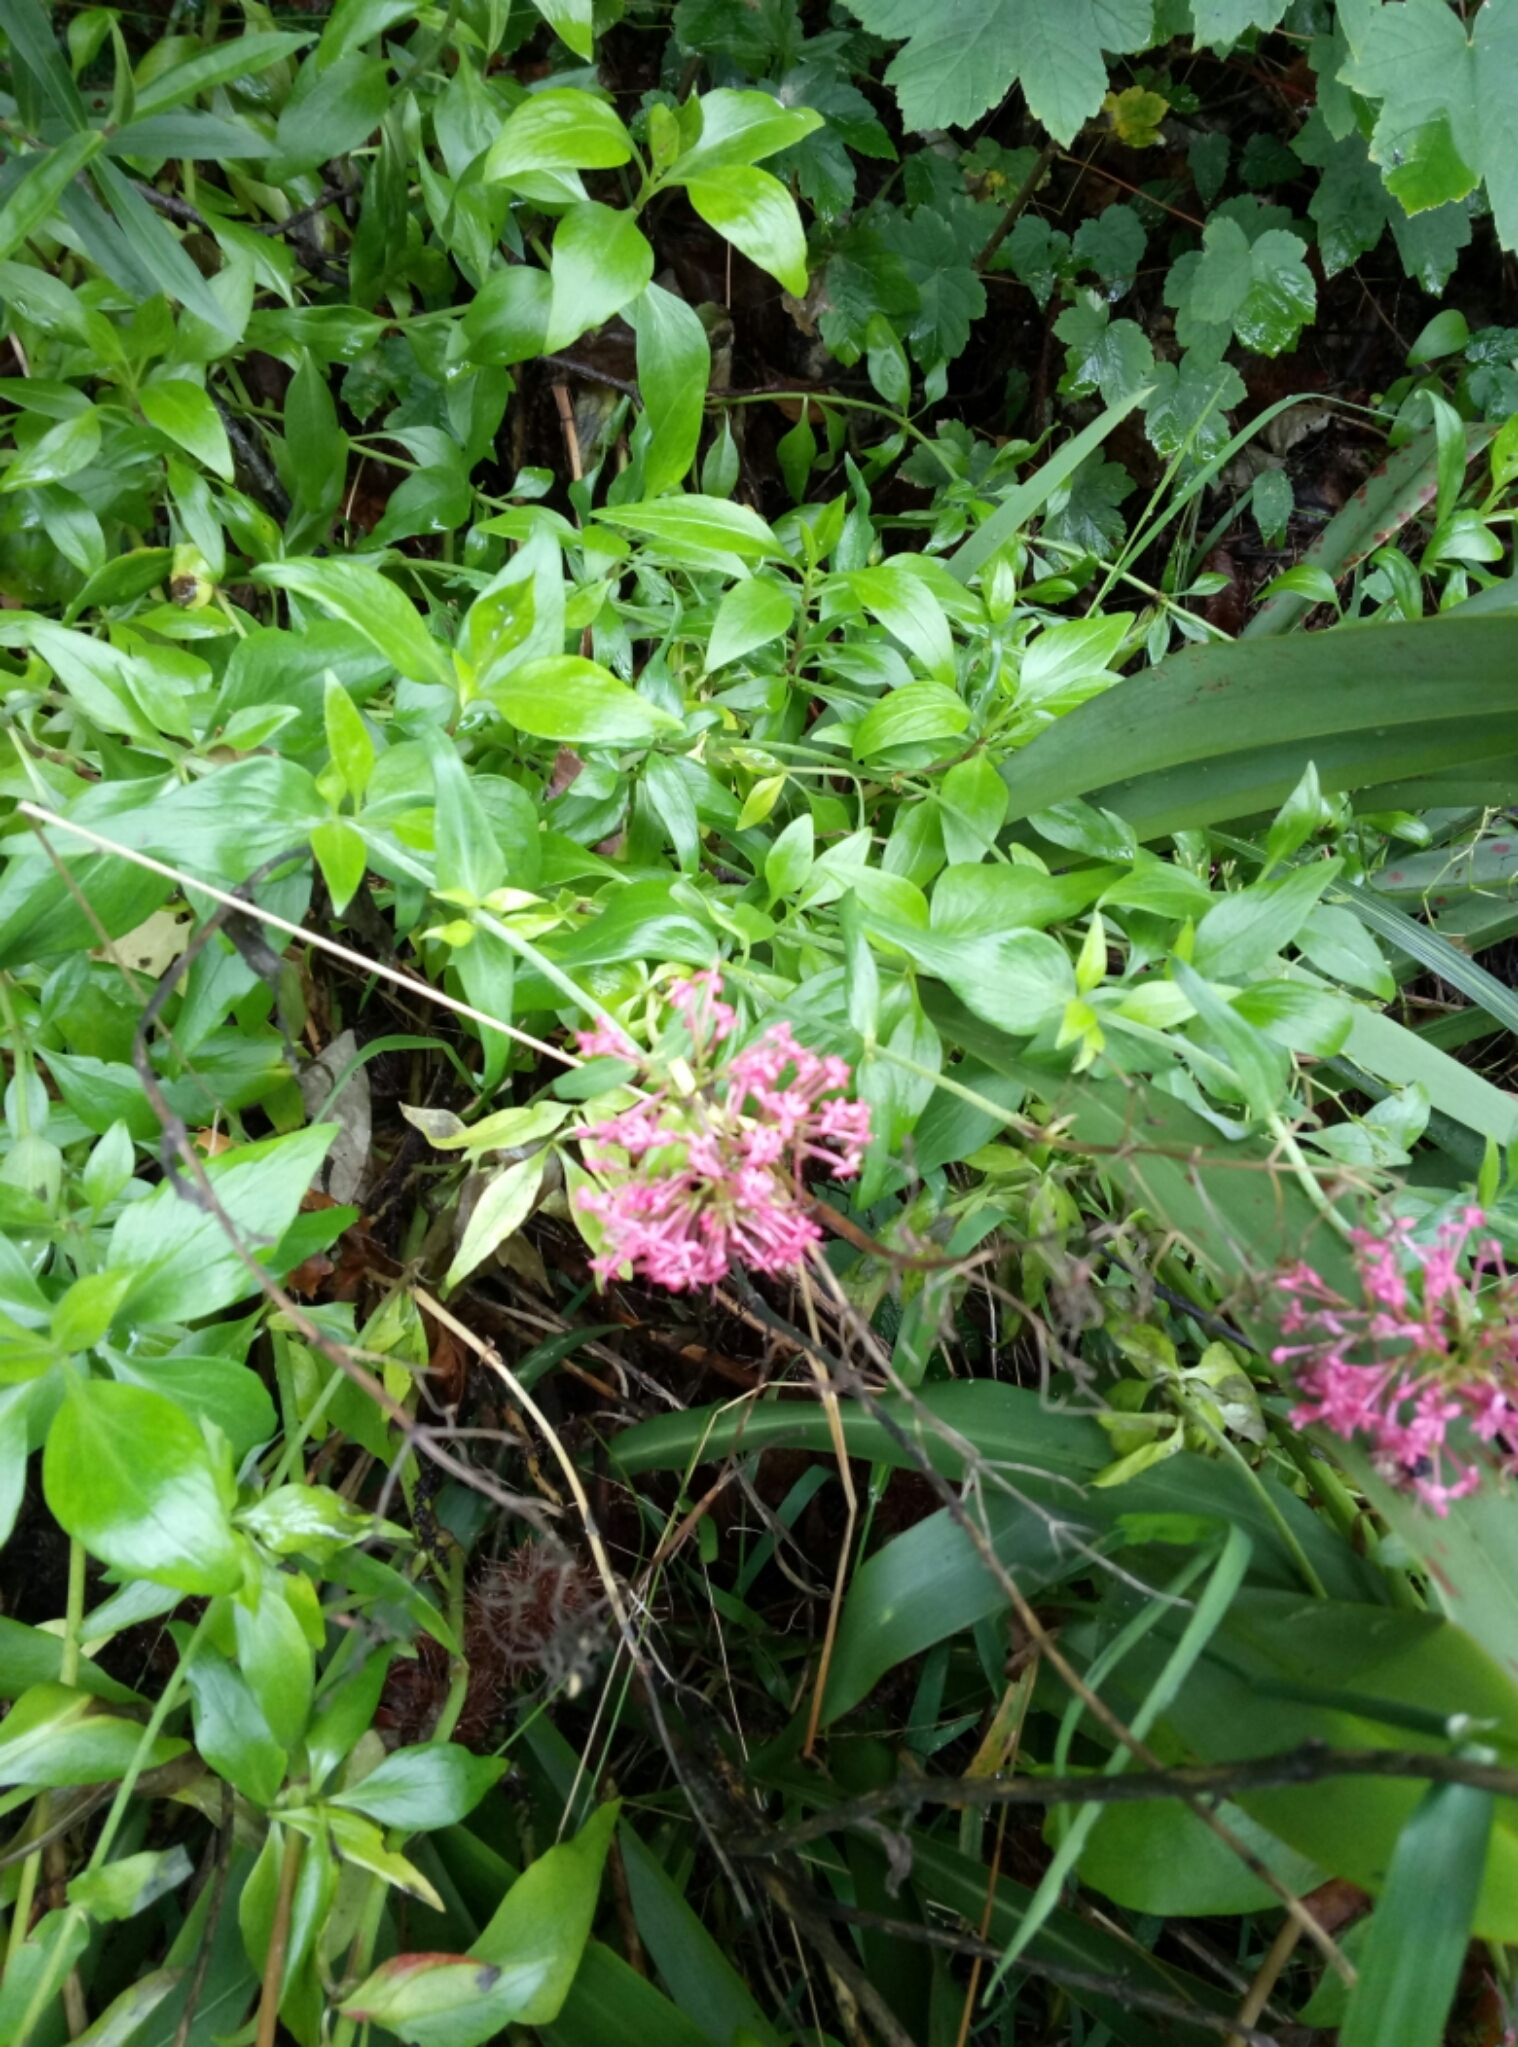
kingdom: Plantae
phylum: Tracheophyta
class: Magnoliopsida
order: Dipsacales
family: Caprifoliaceae
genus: Centranthus
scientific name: Centranthus ruber
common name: Red valerian
